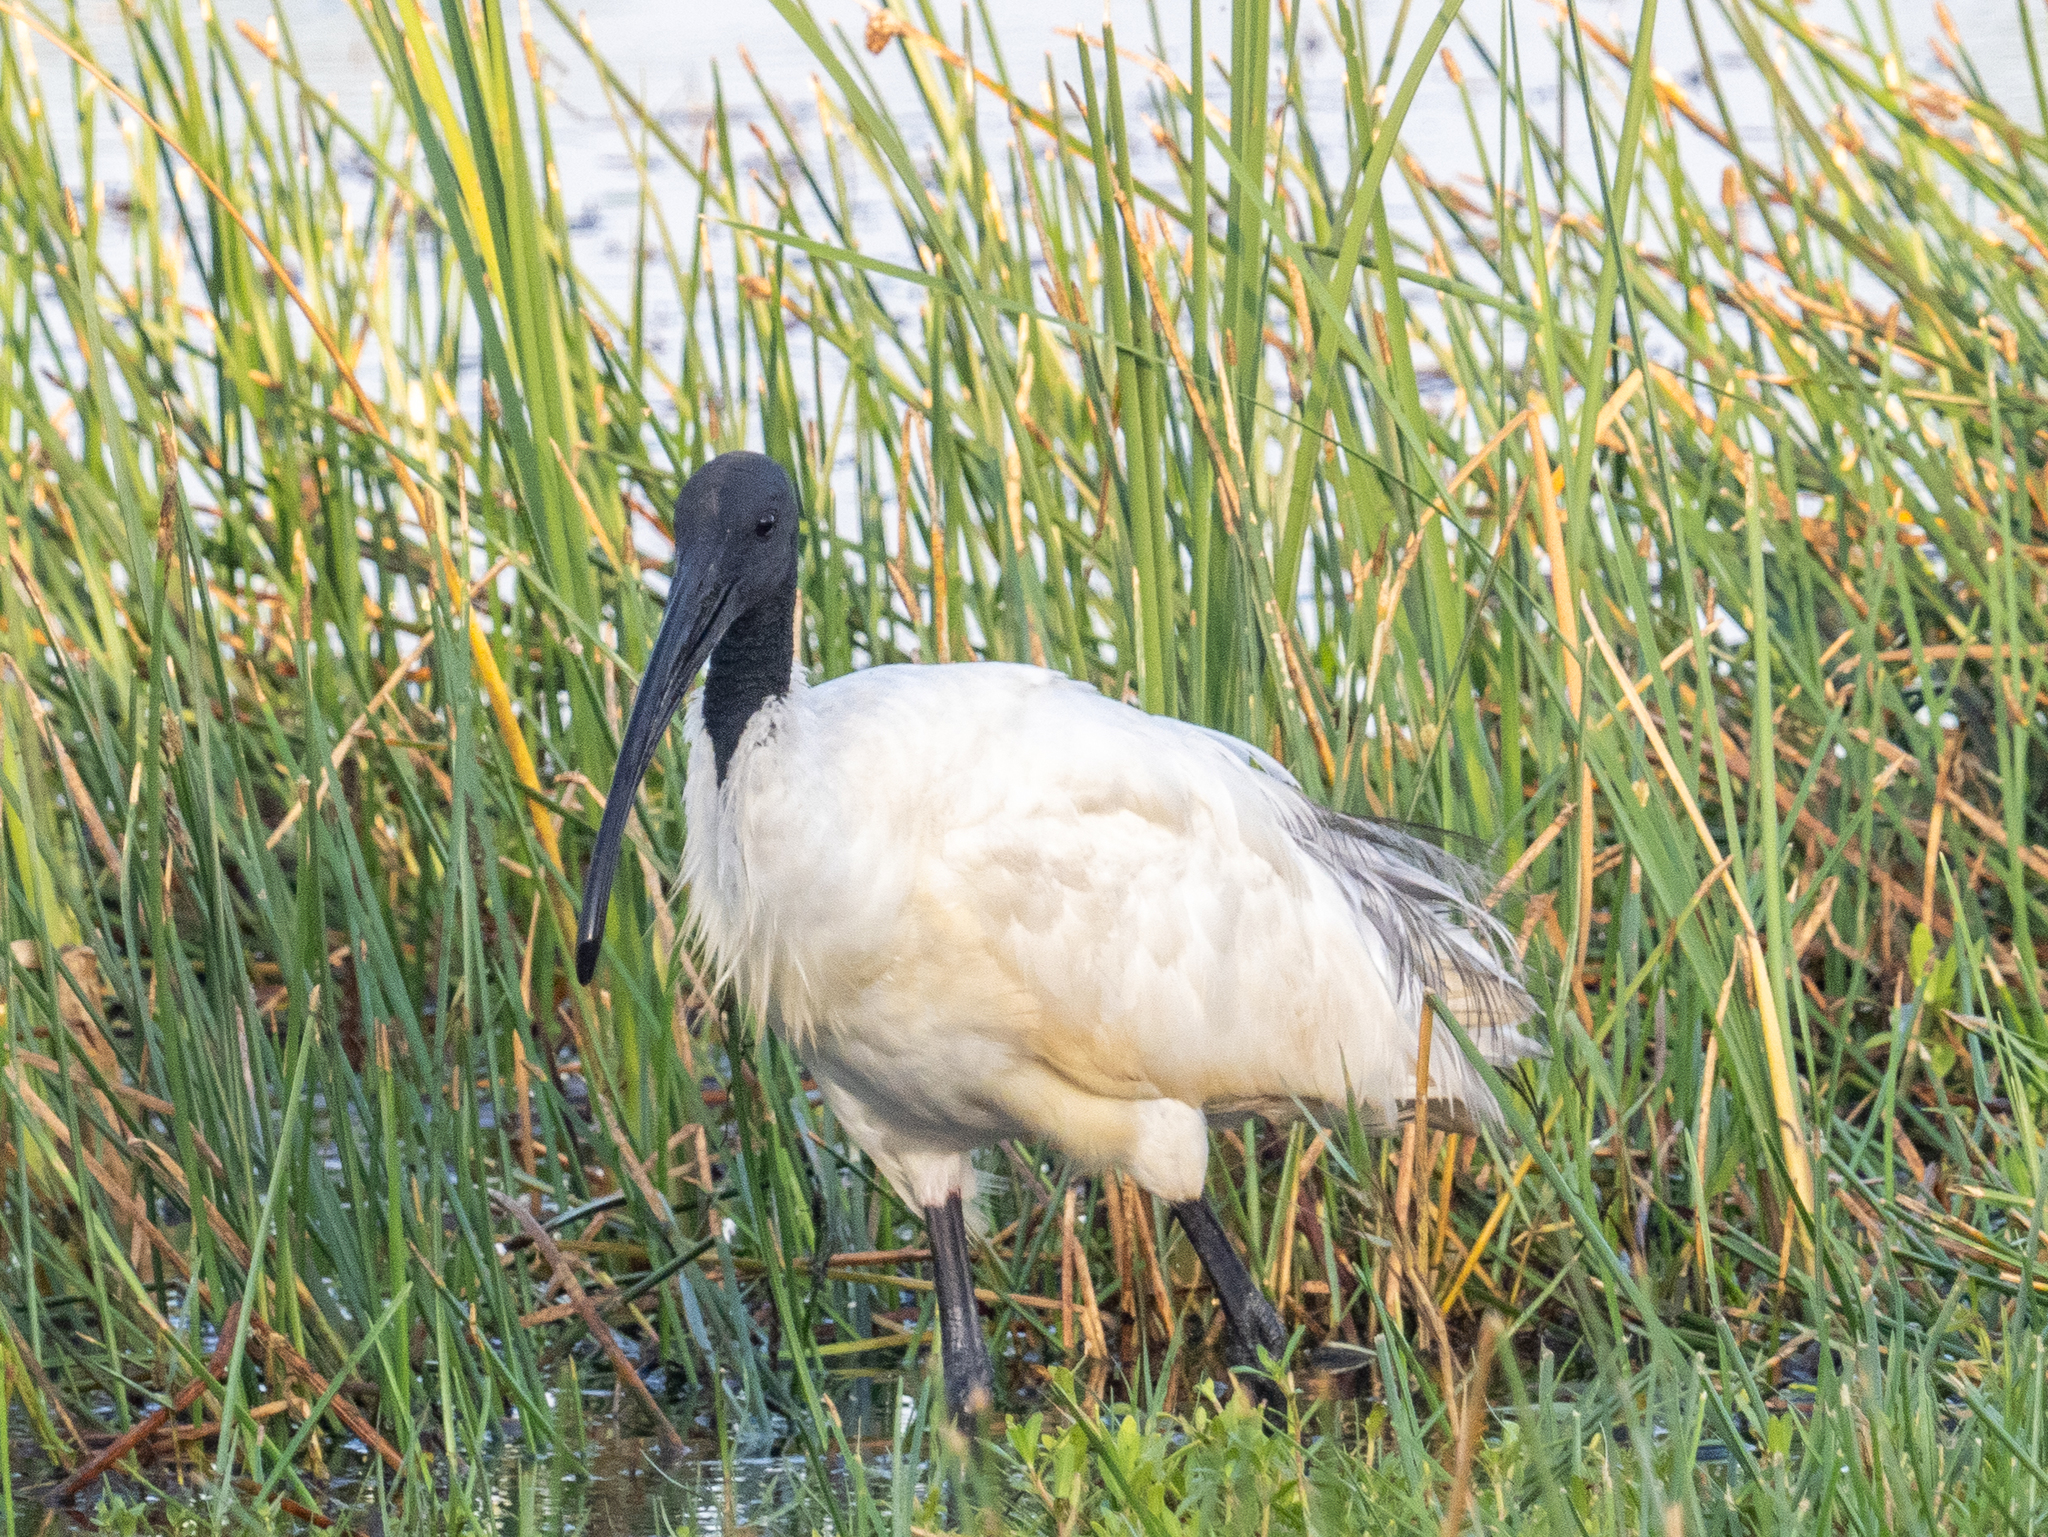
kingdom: Animalia
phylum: Chordata
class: Aves
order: Pelecaniformes
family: Threskiornithidae
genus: Threskiornis
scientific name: Threskiornis melanocephalus
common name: Black-headed ibis
